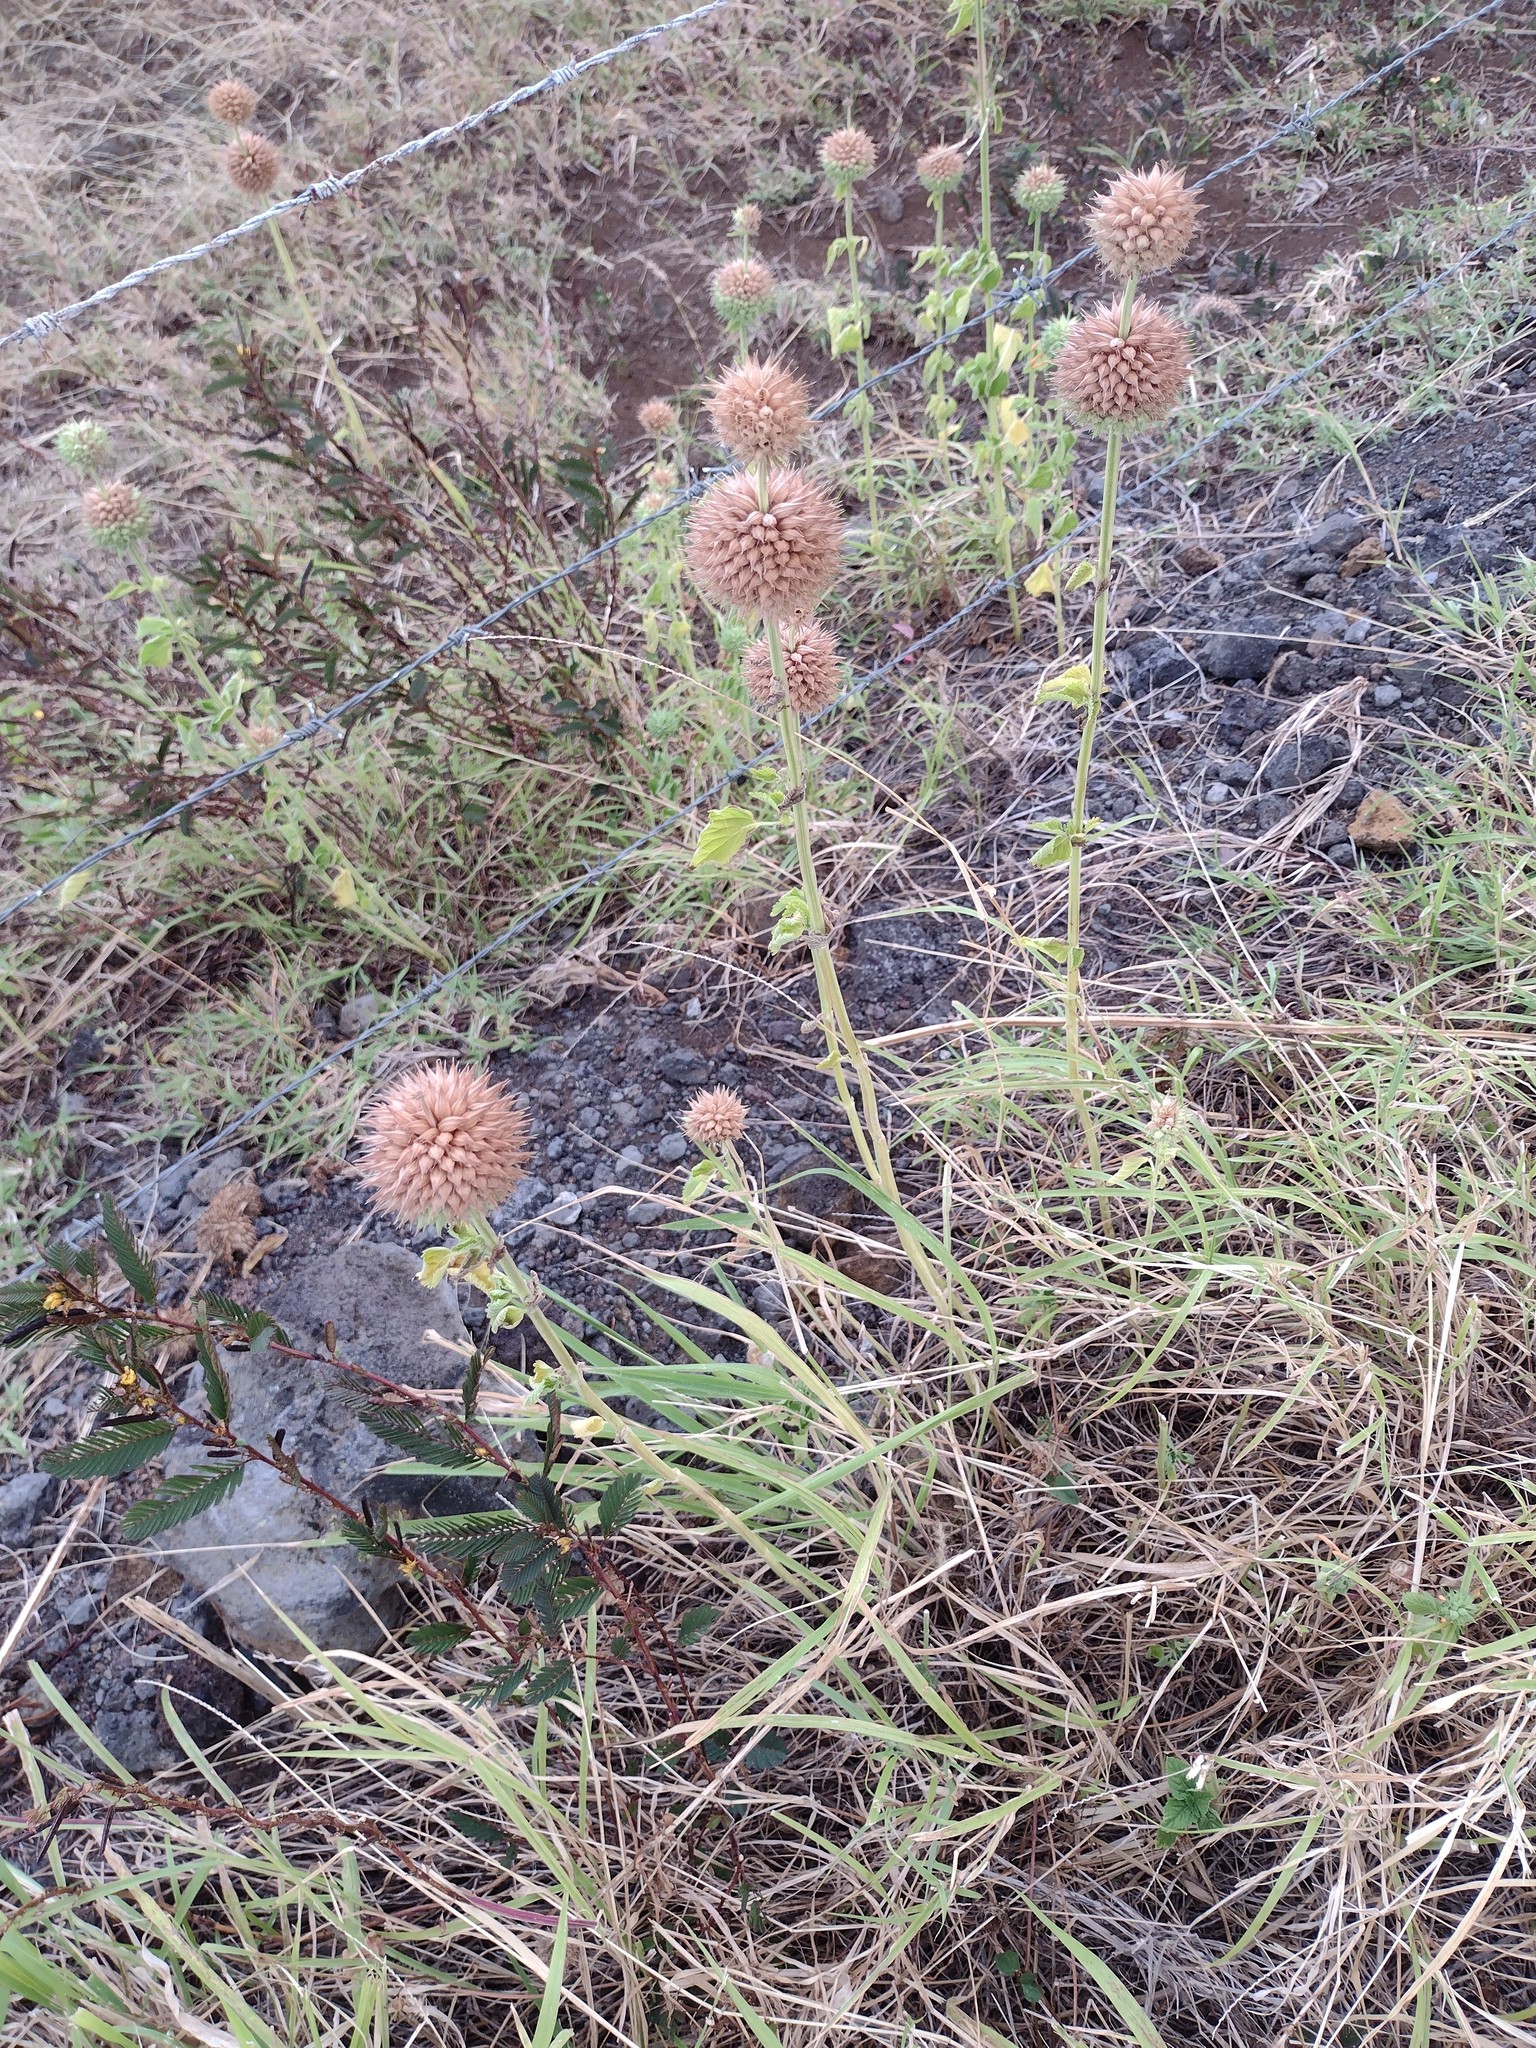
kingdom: Plantae
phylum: Tracheophyta
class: Magnoliopsida
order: Lamiales
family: Lamiaceae
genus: Leonotis
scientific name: Leonotis nepetifolia
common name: Christmas candlestick
